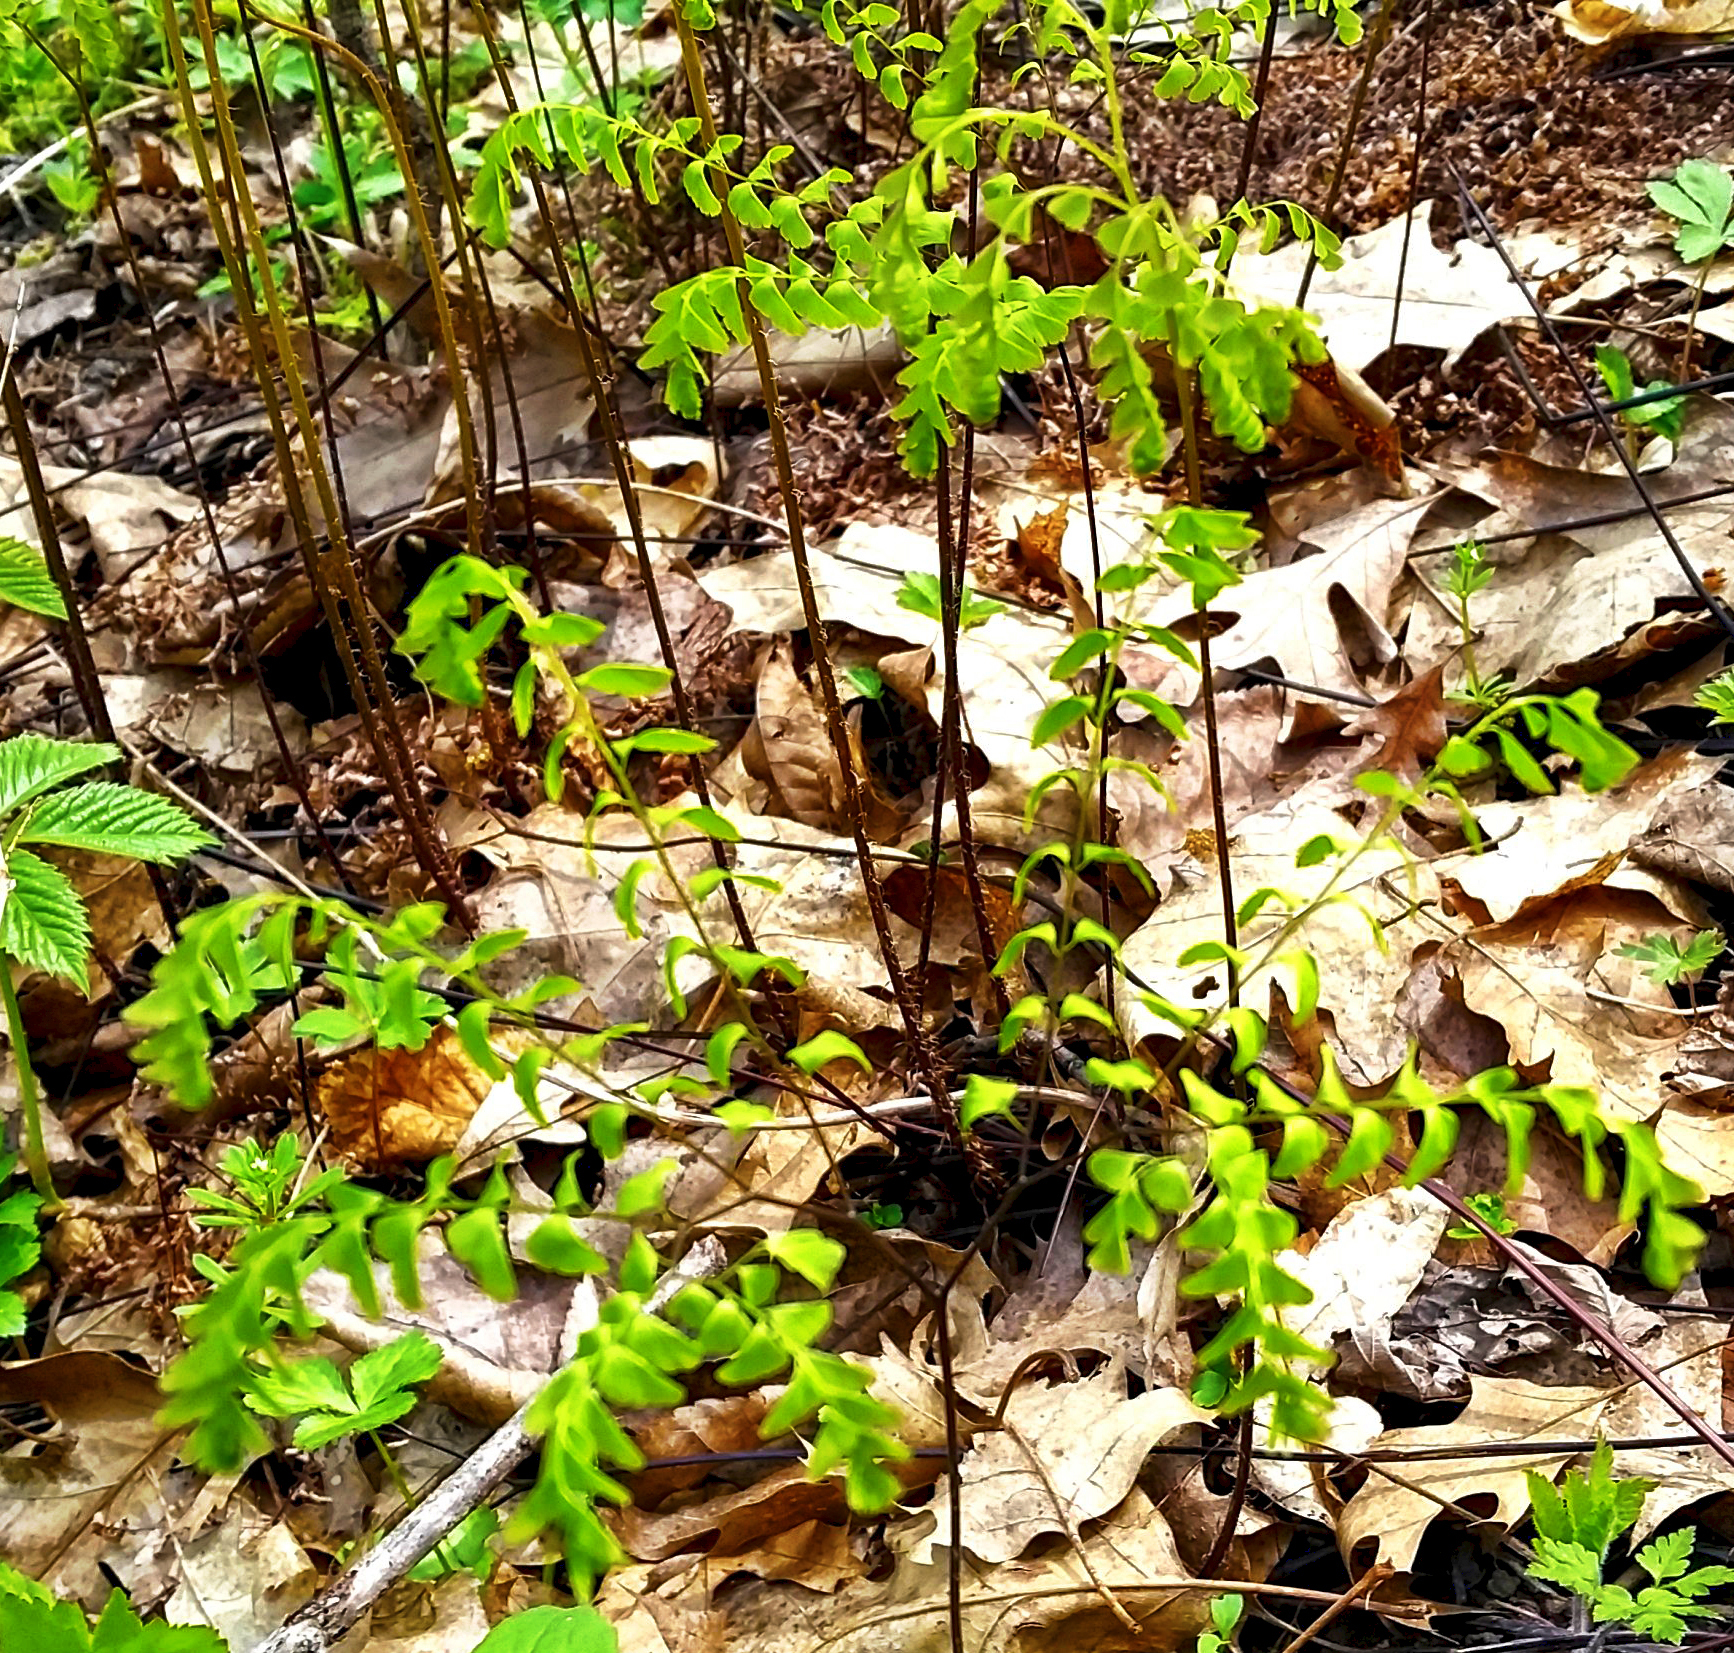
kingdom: Plantae
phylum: Tracheophyta
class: Polypodiopsida
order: Polypodiales
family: Pteridaceae
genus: Adiantum
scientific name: Adiantum pedatum
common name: Five-finger fern
